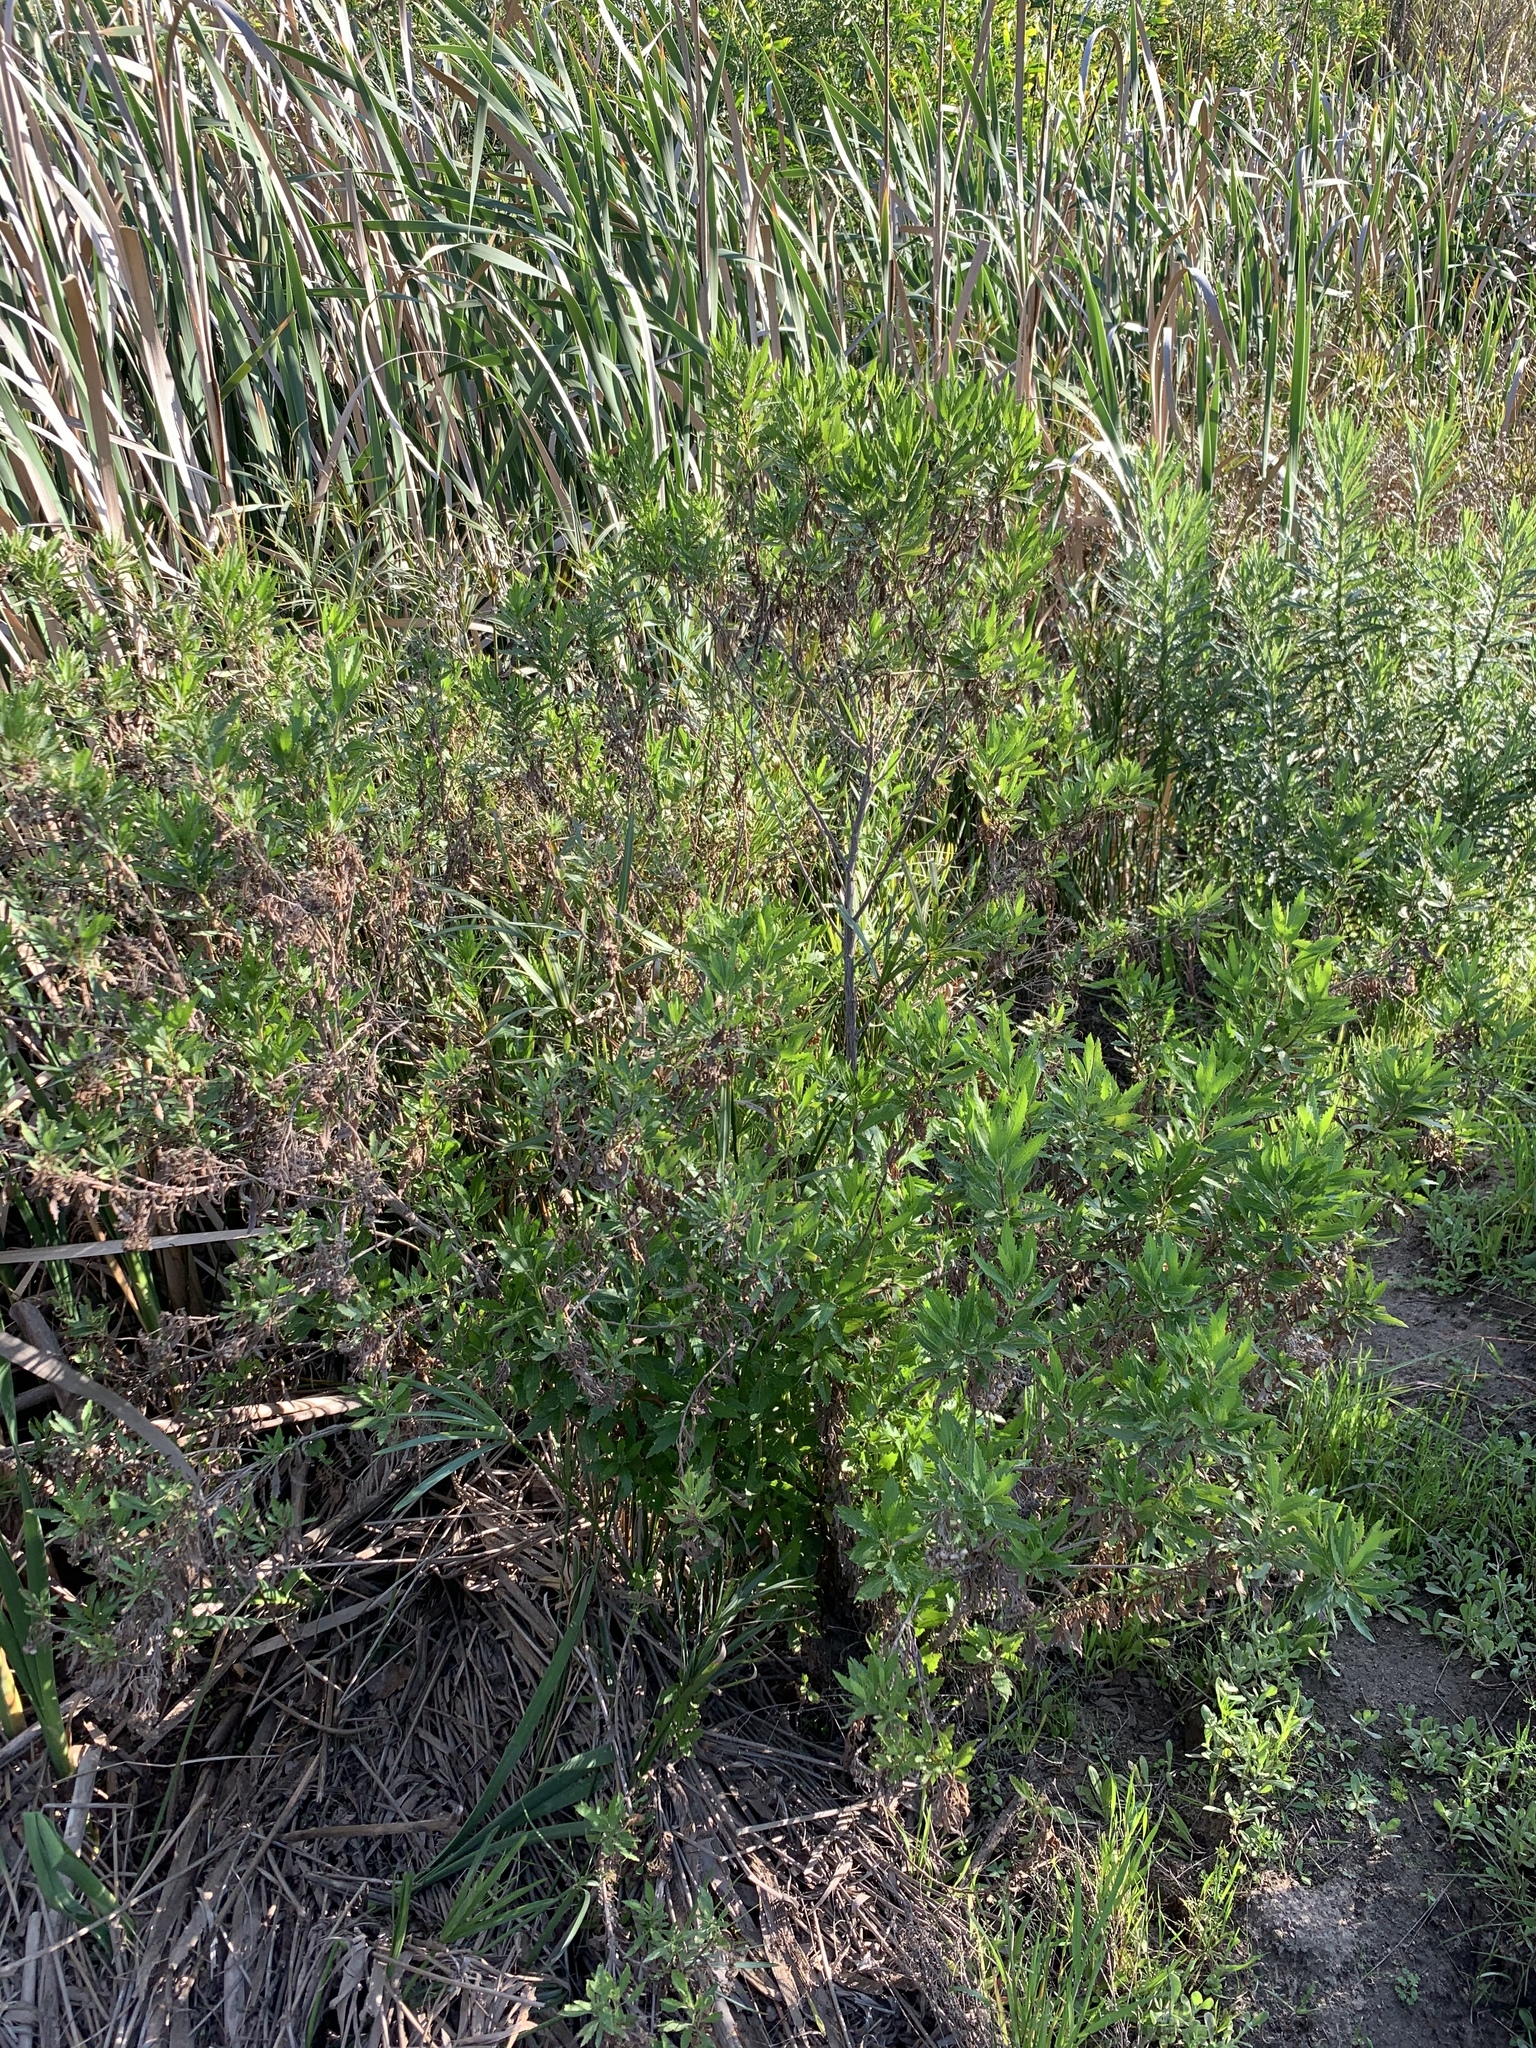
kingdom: Plantae
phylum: Tracheophyta
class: Magnoliopsida
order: Asterales
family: Asteraceae
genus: Nidorella
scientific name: Nidorella ivifolia
